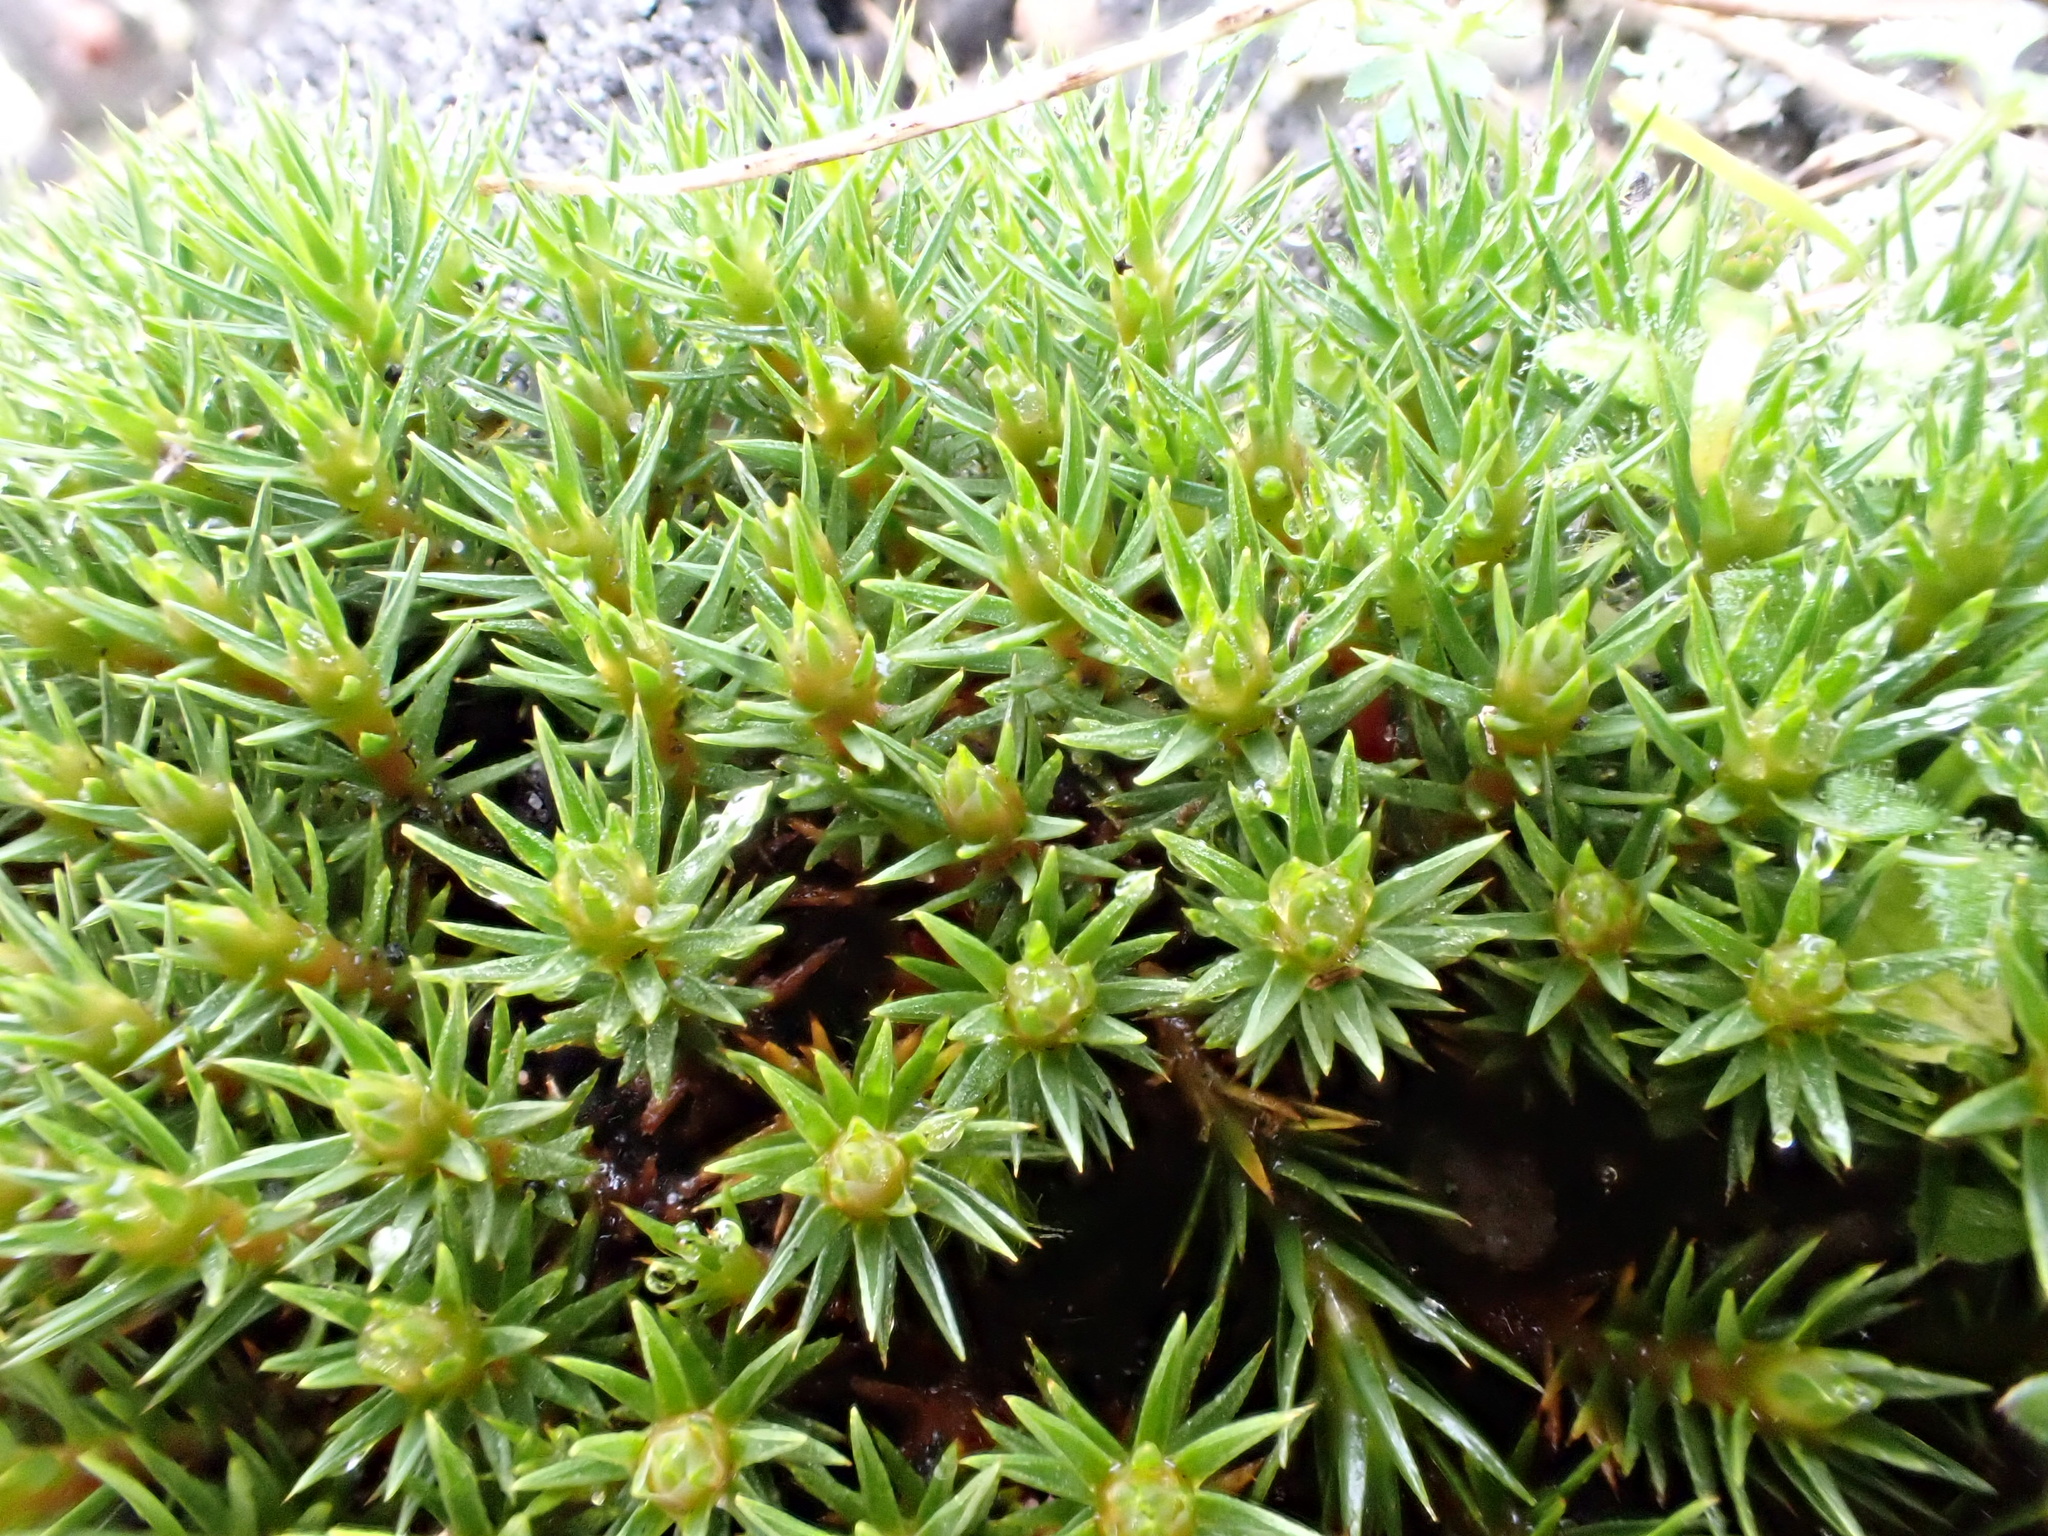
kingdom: Plantae
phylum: Bryophyta
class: Polytrichopsida
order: Polytrichales
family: Polytrichaceae
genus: Pogonatum
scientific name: Pogonatum urnigerum
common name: Urn hair moss
